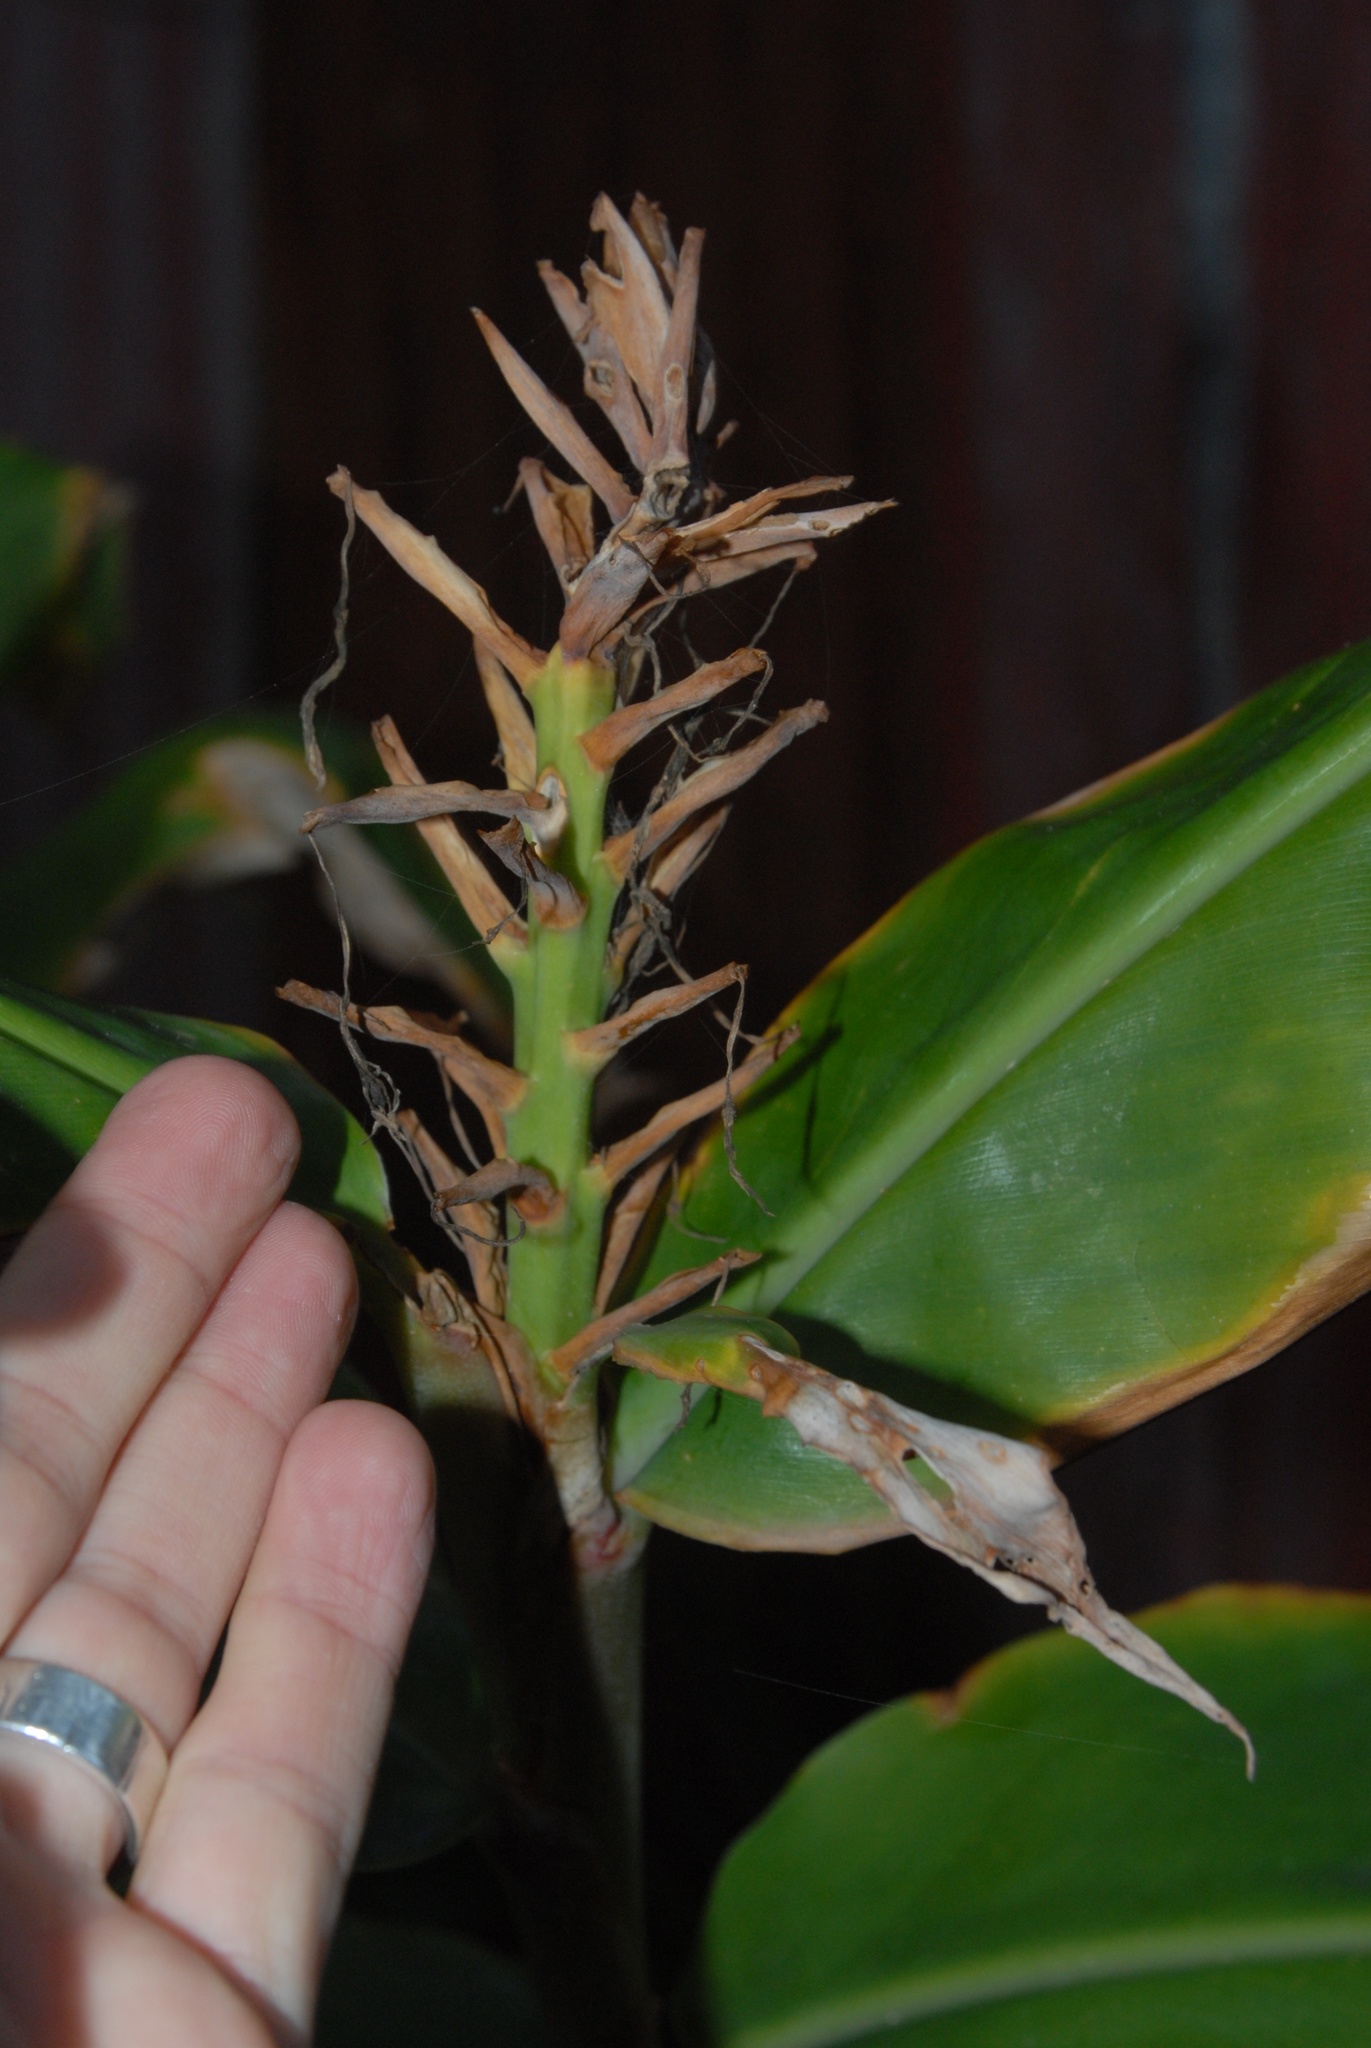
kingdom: Plantae
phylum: Tracheophyta
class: Liliopsida
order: Zingiberales
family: Zingiberaceae
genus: Hedychium
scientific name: Hedychium gardnerianum
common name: Himalayan ginger
